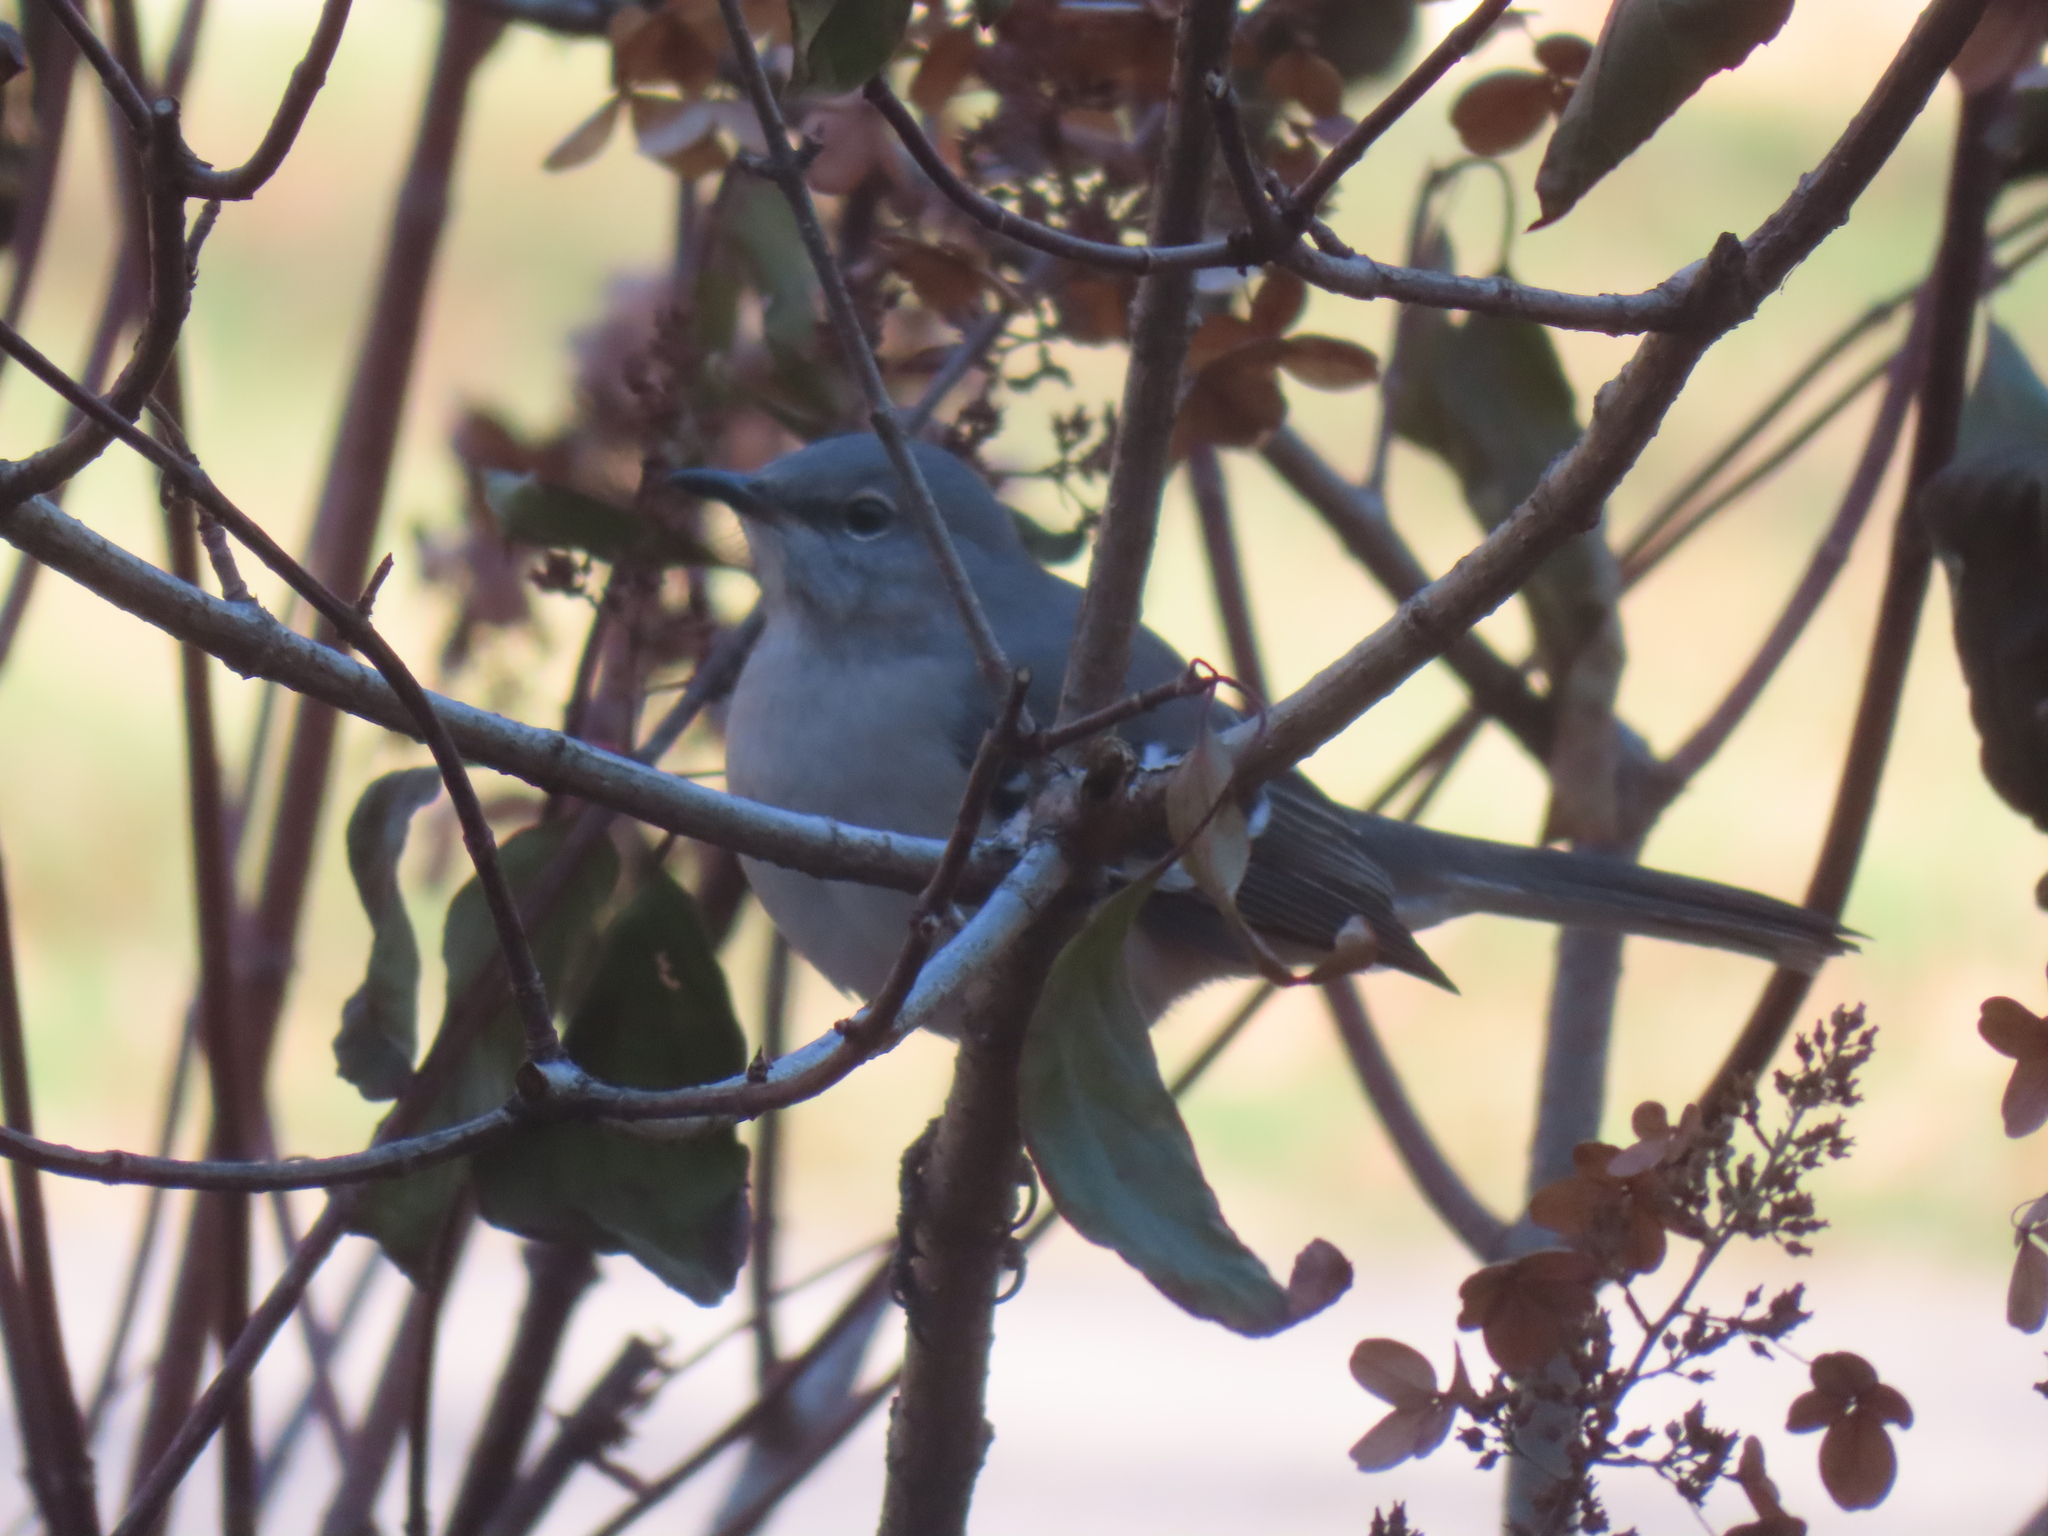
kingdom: Animalia
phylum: Chordata
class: Aves
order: Passeriformes
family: Mimidae
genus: Mimus
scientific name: Mimus polyglottos
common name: Northern mockingbird
